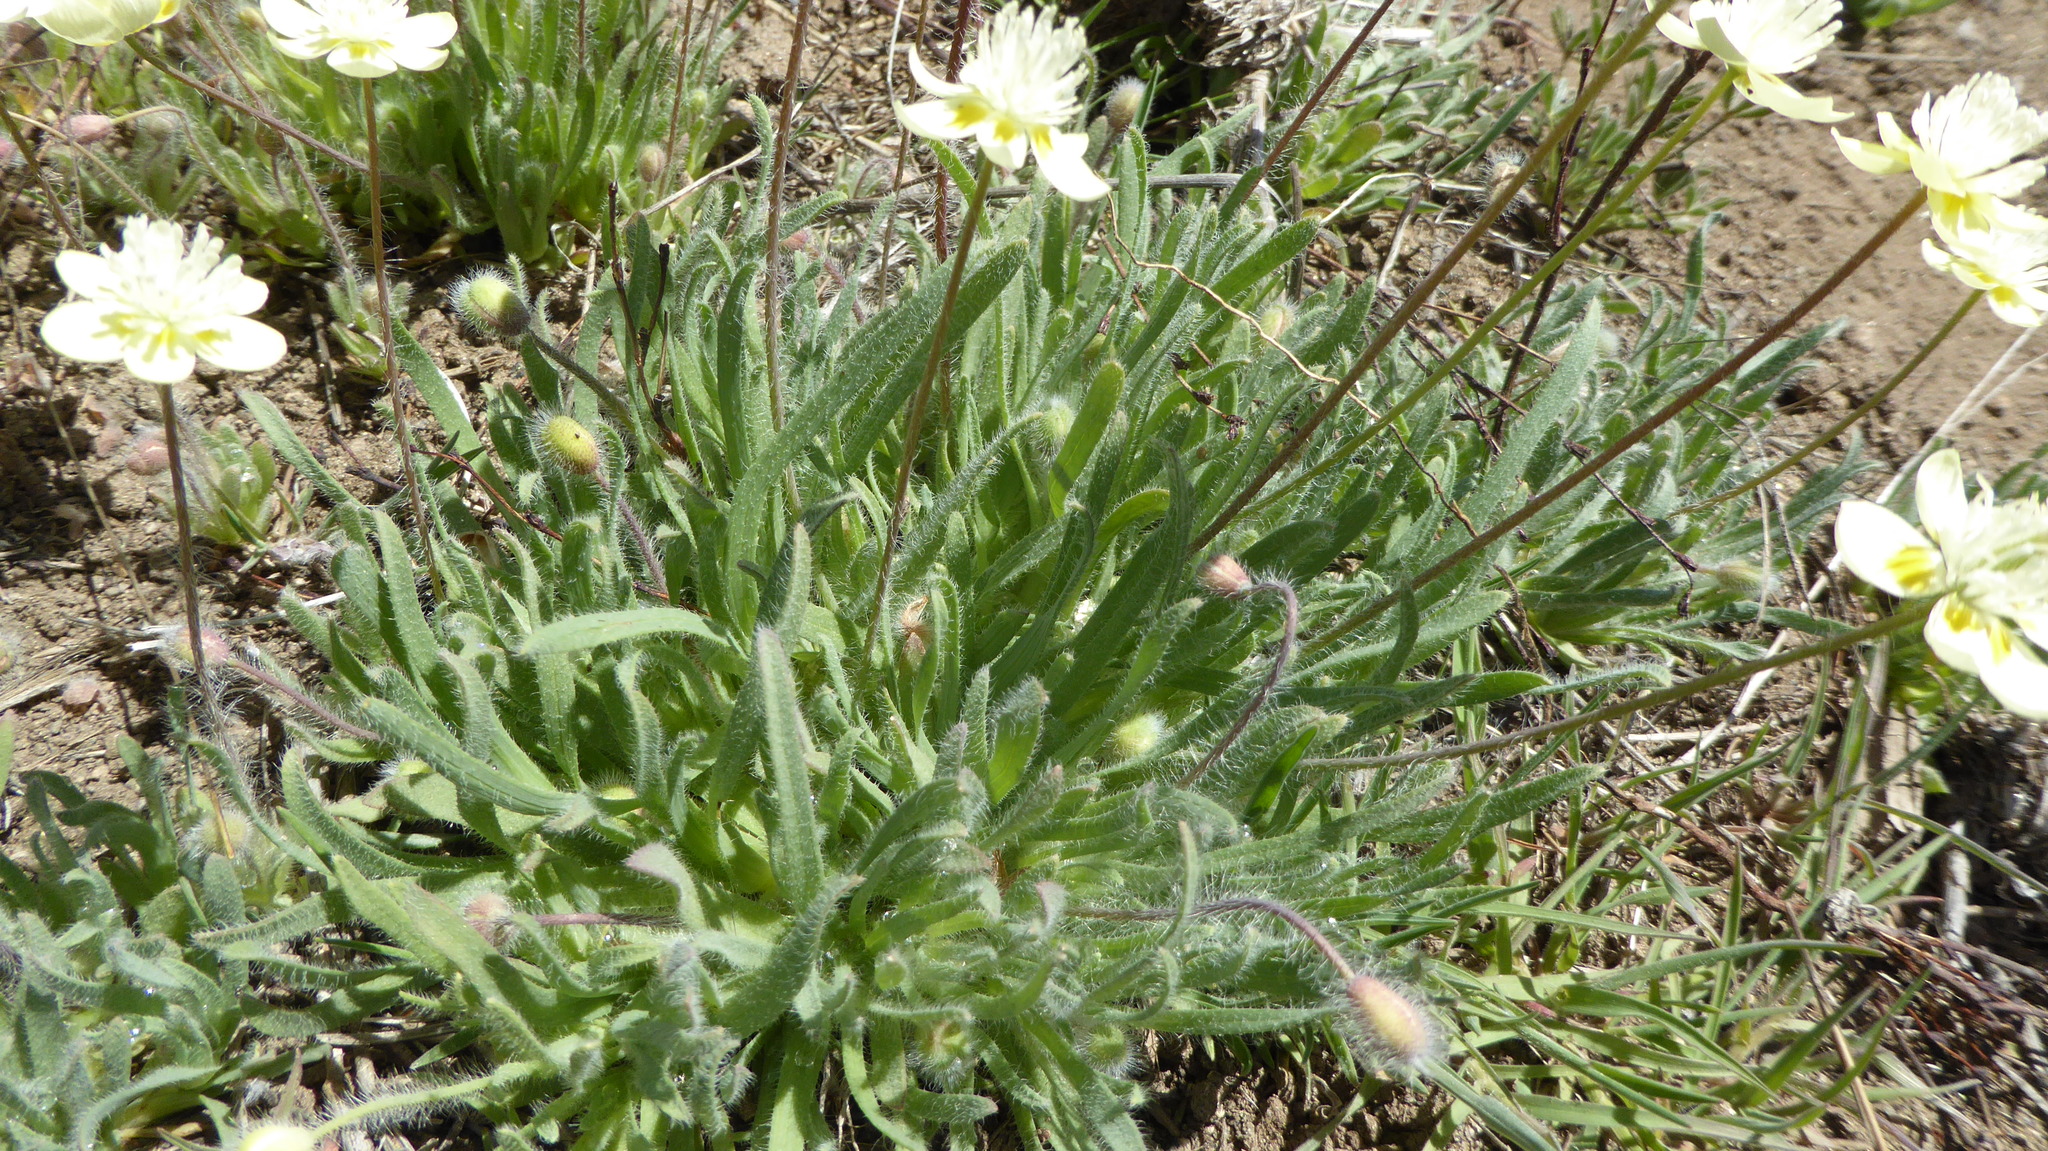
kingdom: Plantae
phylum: Tracheophyta
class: Magnoliopsida
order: Ranunculales
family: Papaveraceae
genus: Platystemon
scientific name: Platystemon californicus
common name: Cream-cups
